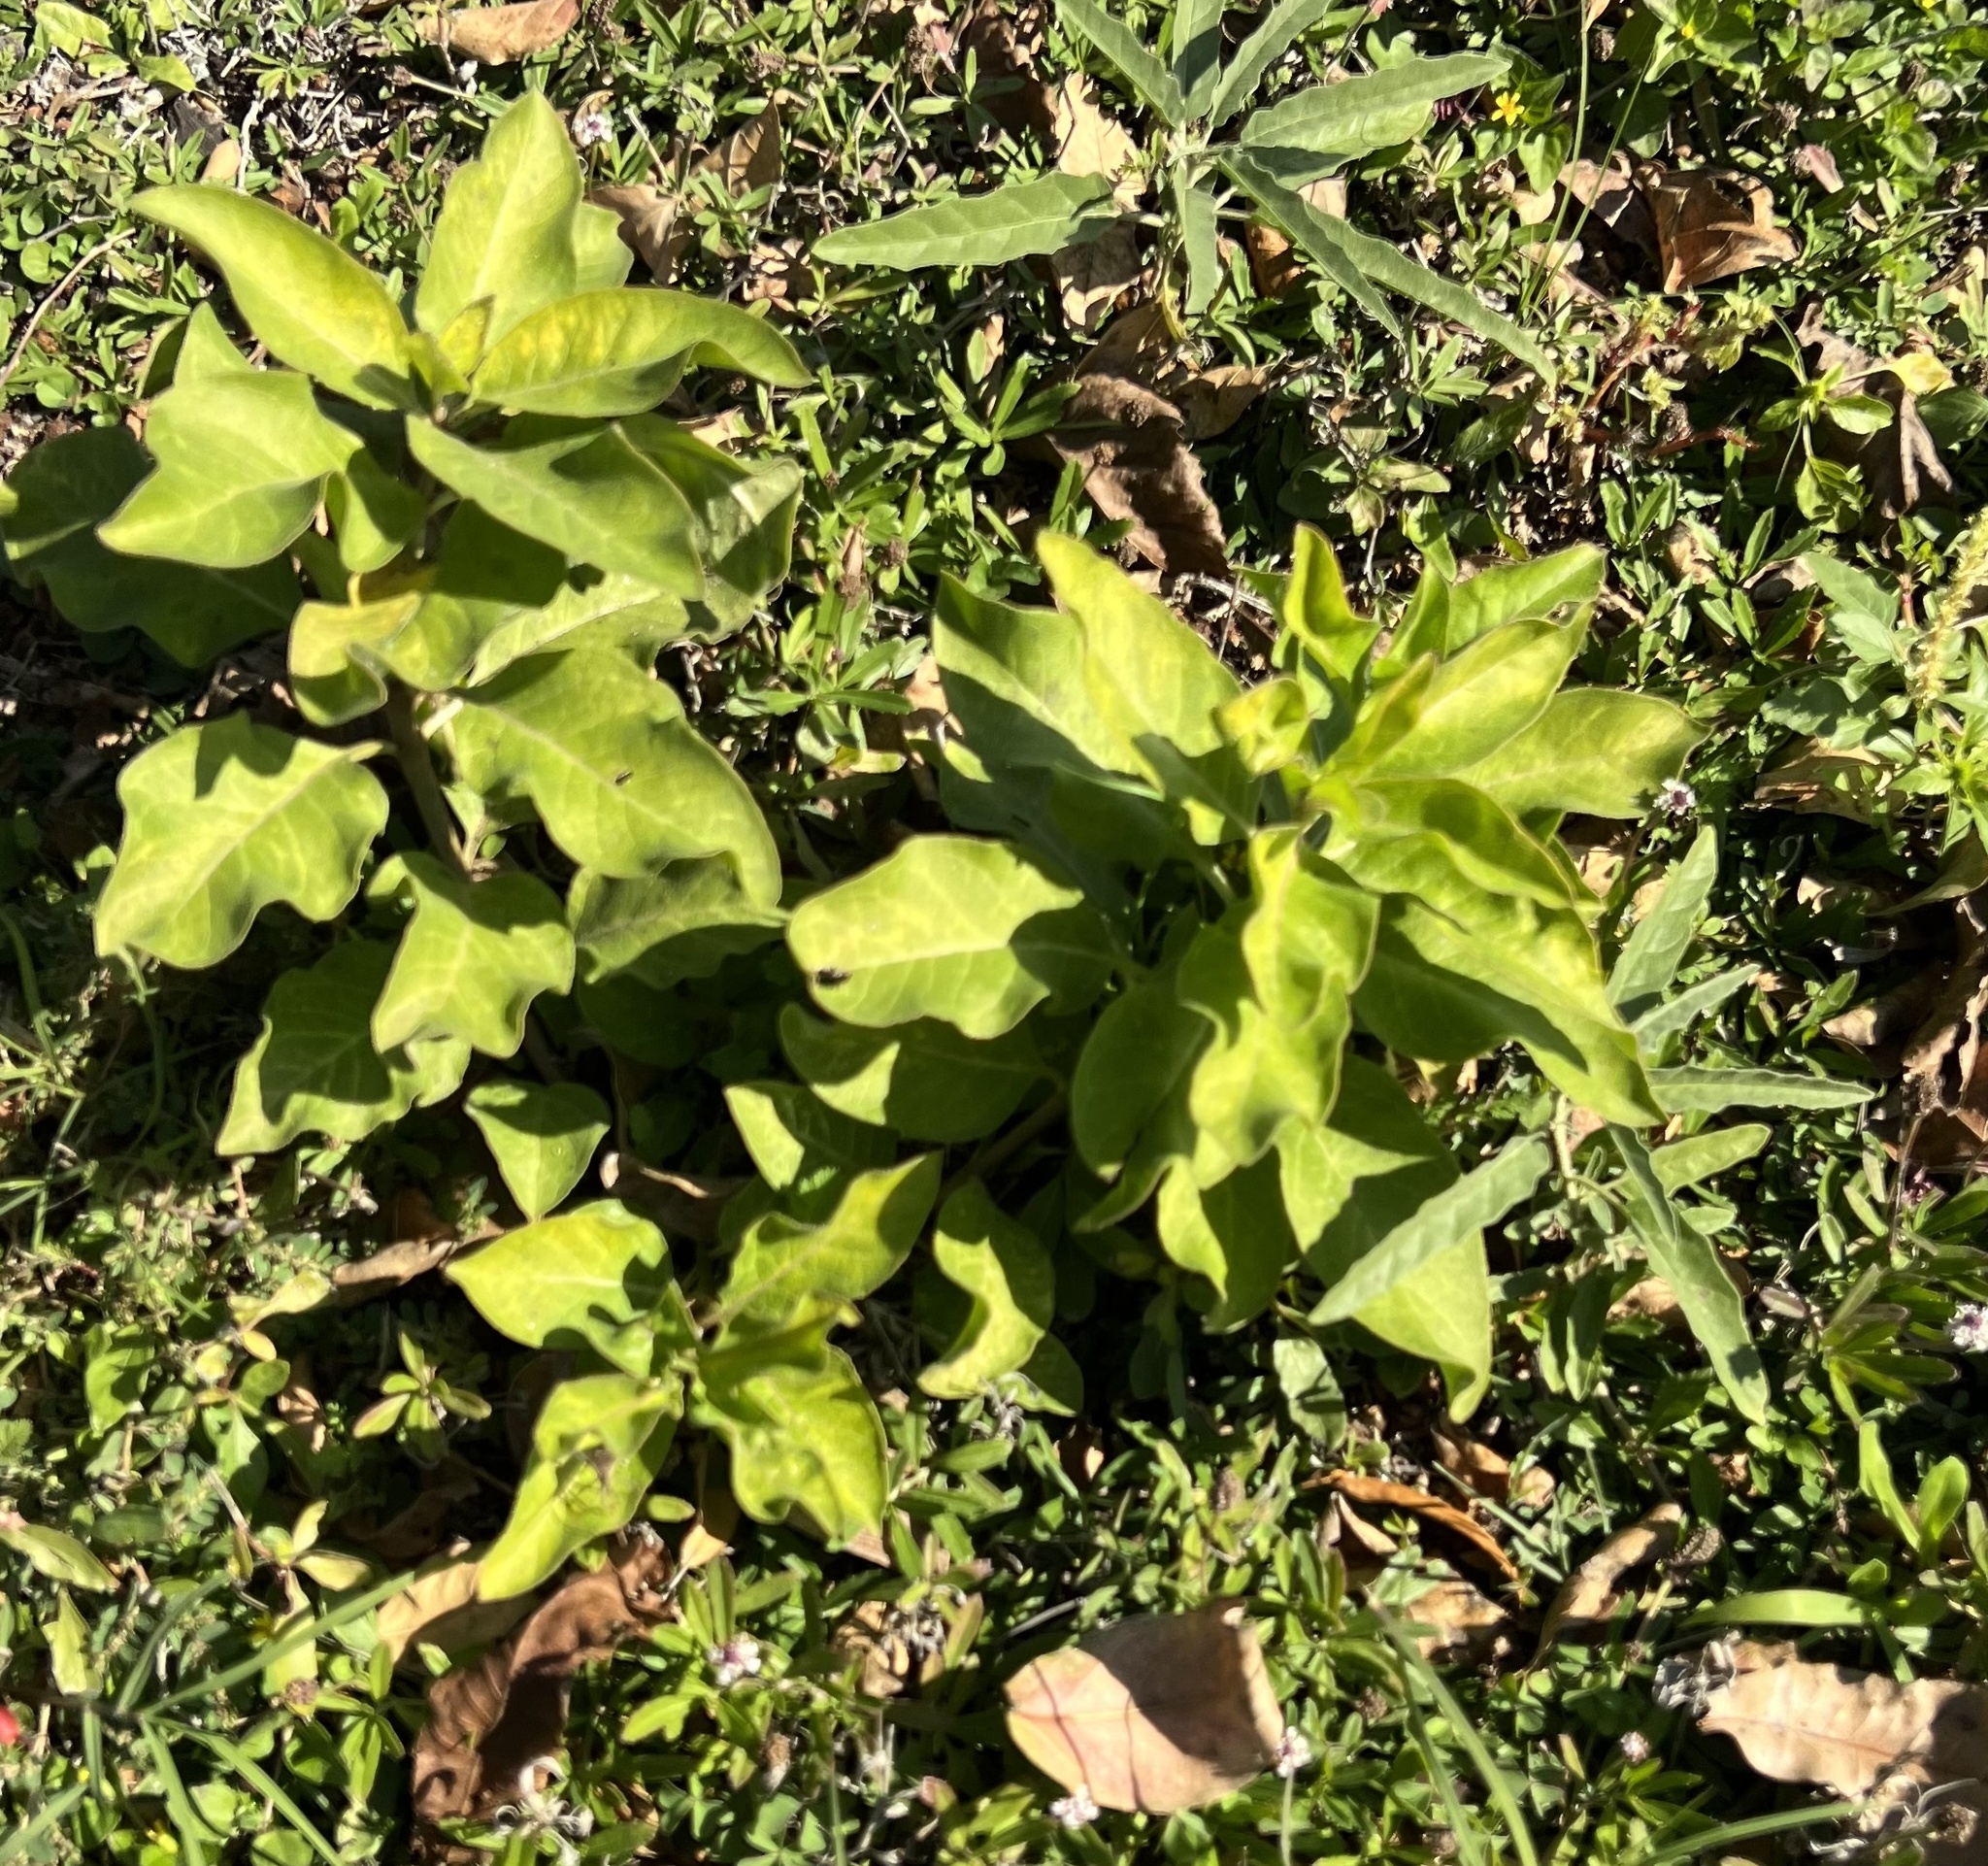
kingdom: Plantae
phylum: Tracheophyta
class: Magnoliopsida
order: Gentianales
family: Apocynaceae
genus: Asclepias
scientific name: Asclepias oenotheroides
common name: Zizotes milkweed
